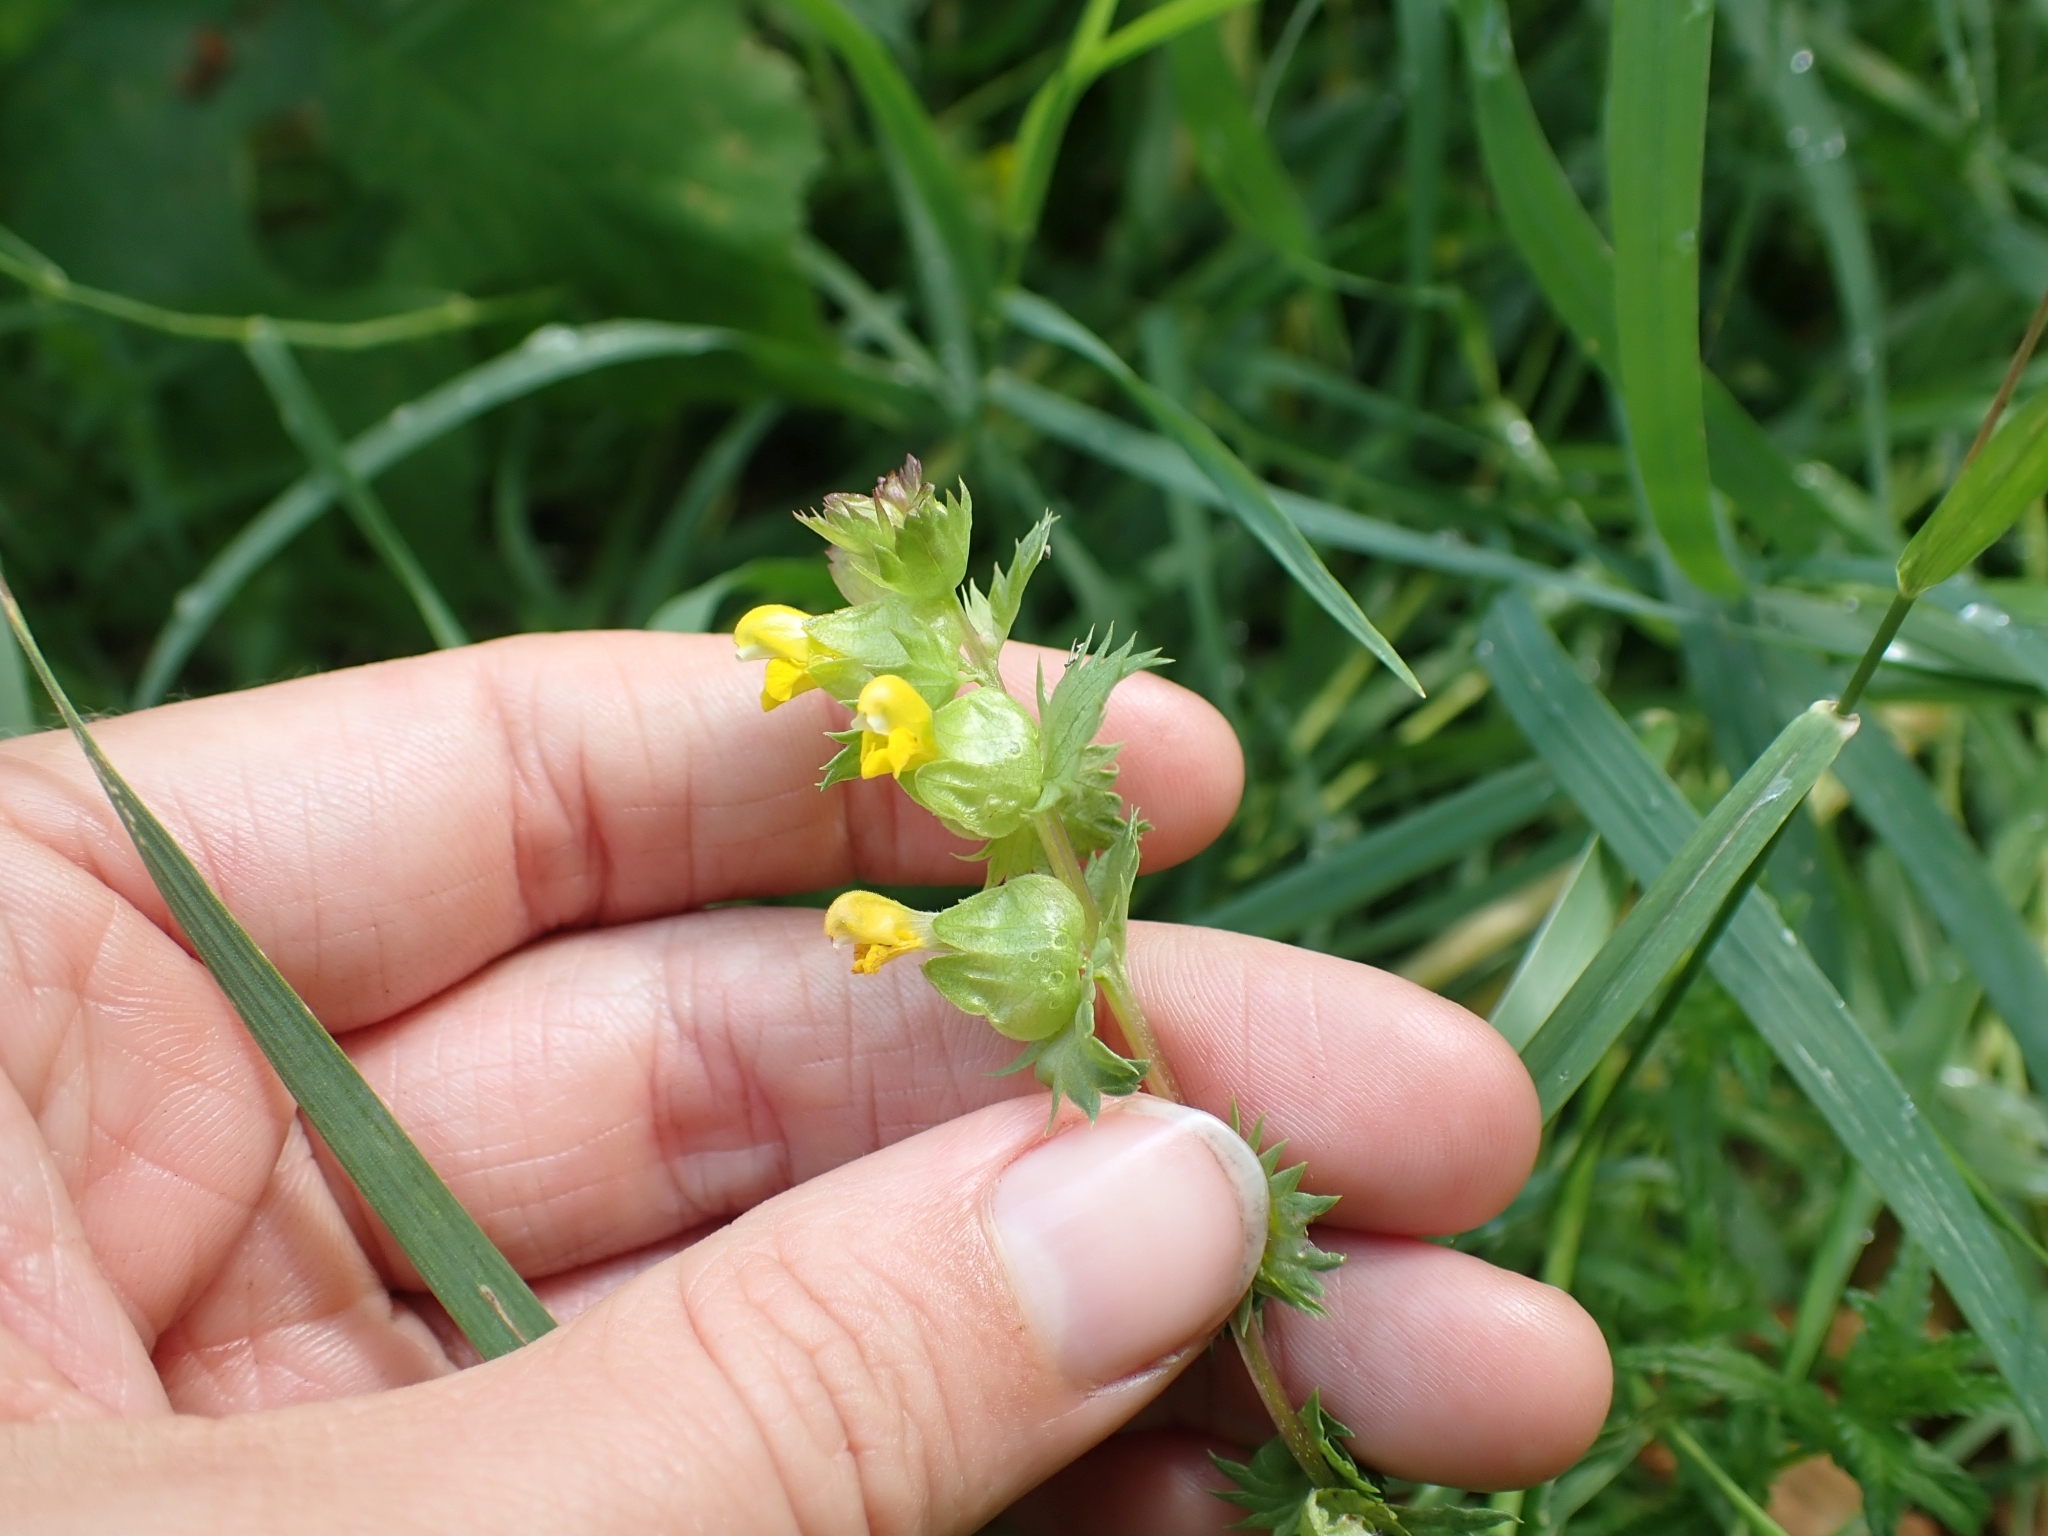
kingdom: Plantae
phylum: Tracheophyta
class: Magnoliopsida
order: Lamiales
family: Orobanchaceae
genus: Rhinanthus
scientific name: Rhinanthus groenlandicus
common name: Little yellow rattle
